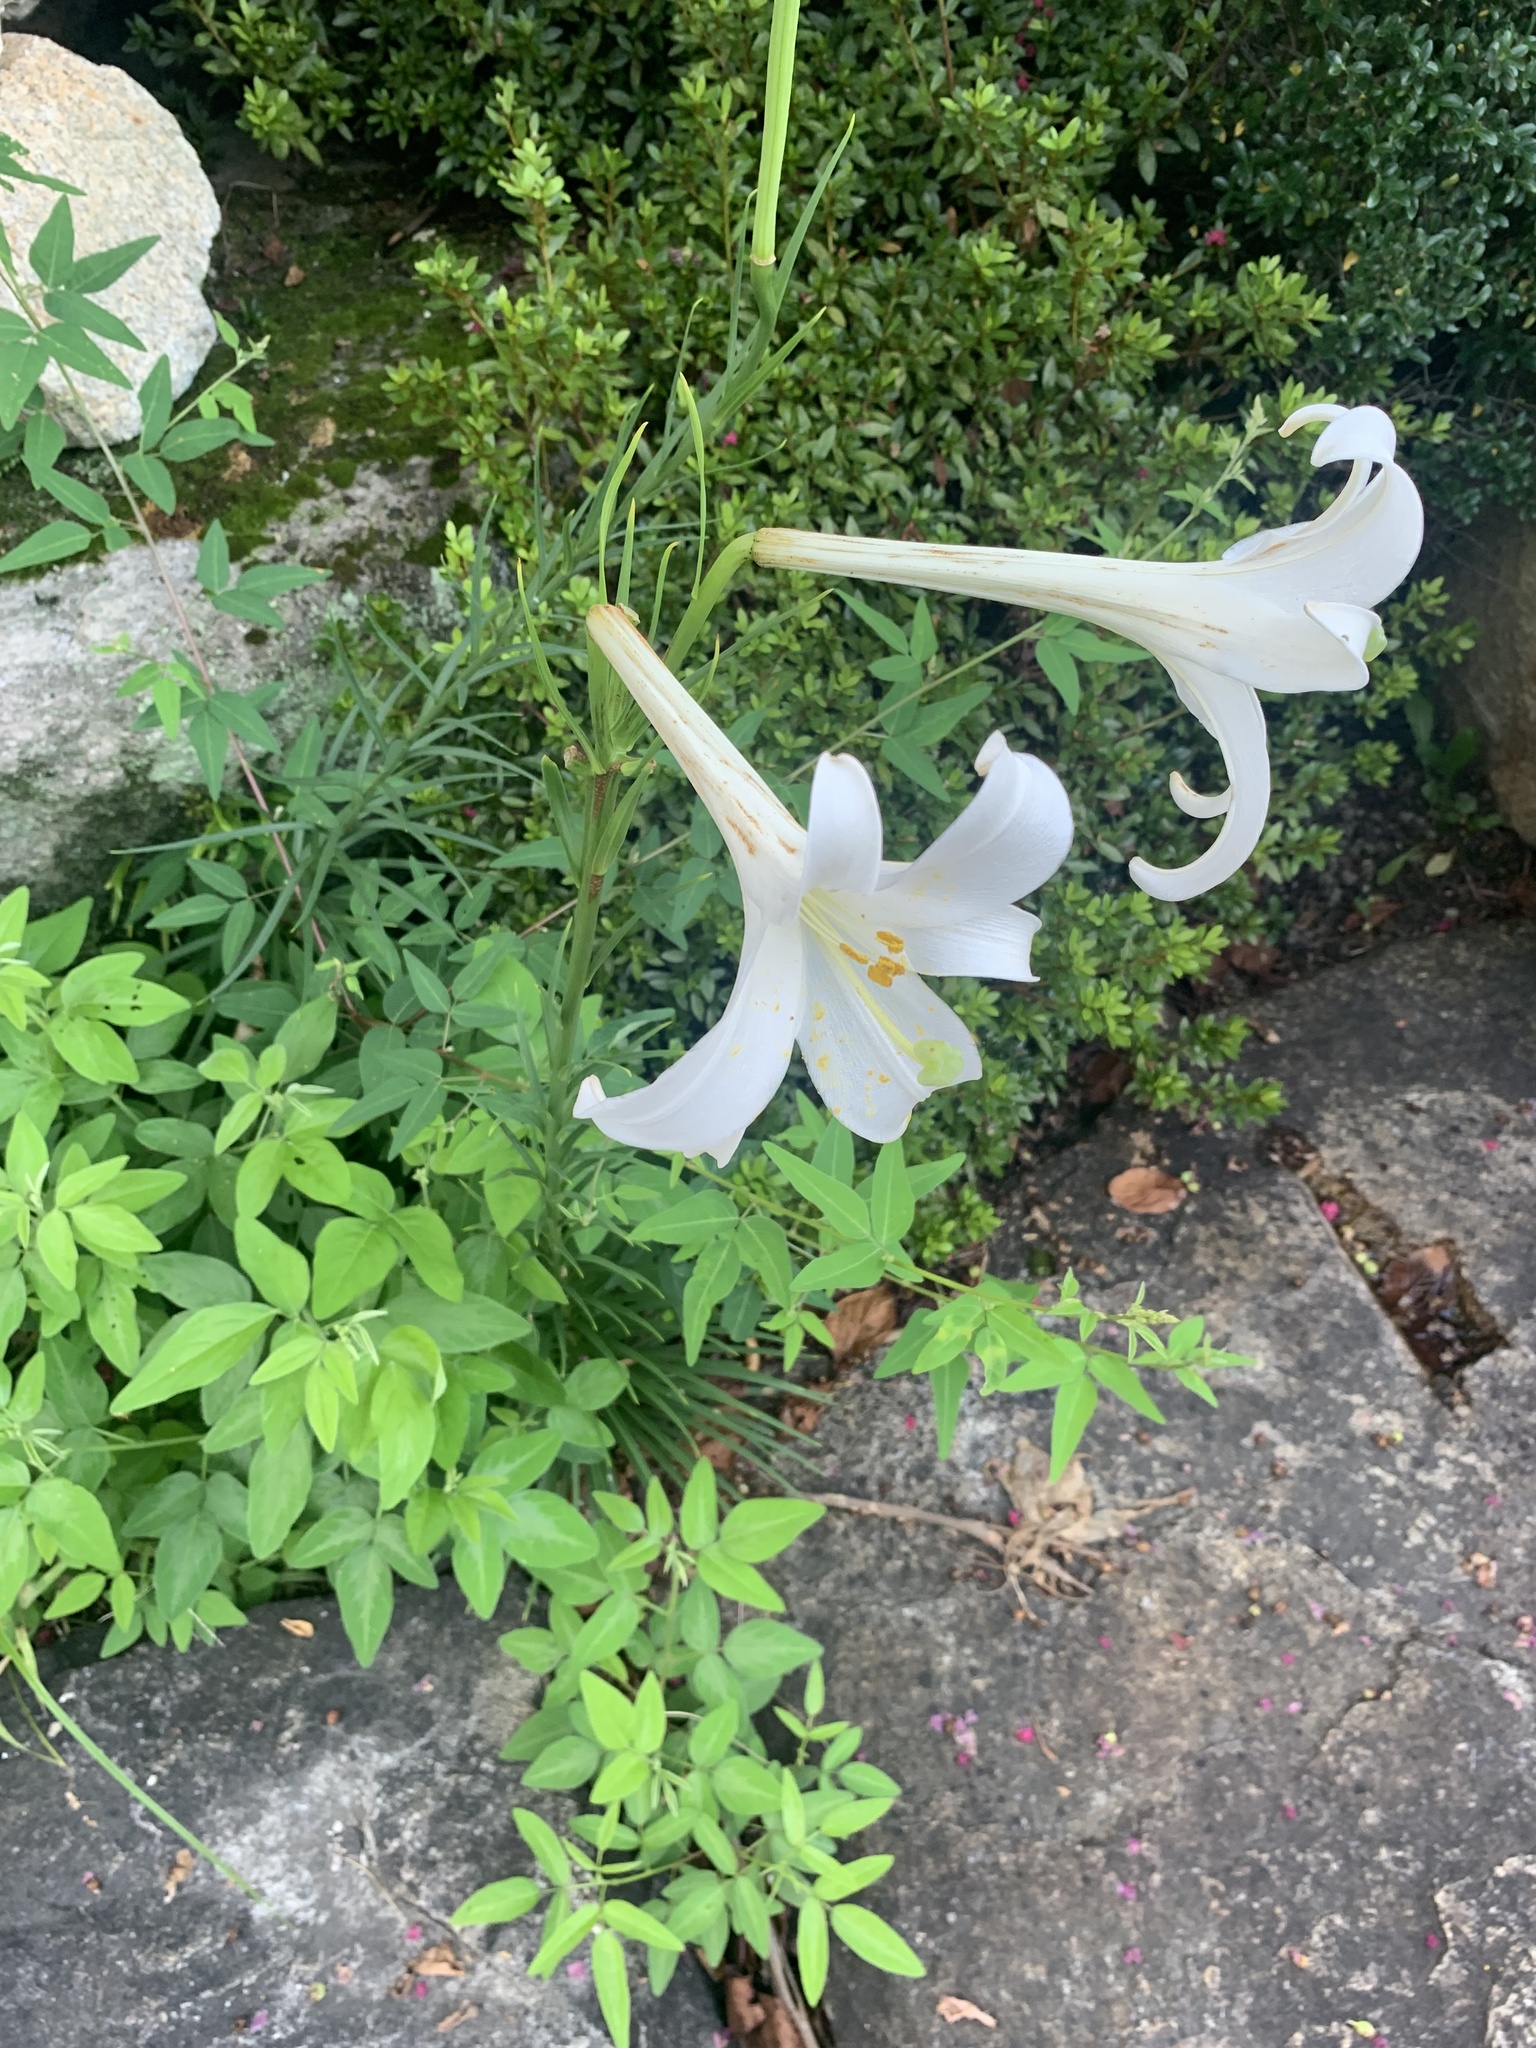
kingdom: Plantae
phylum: Tracheophyta
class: Liliopsida
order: Liliales
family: Liliaceae
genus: Lilium
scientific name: Lilium formosanum
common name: Formosa lily
